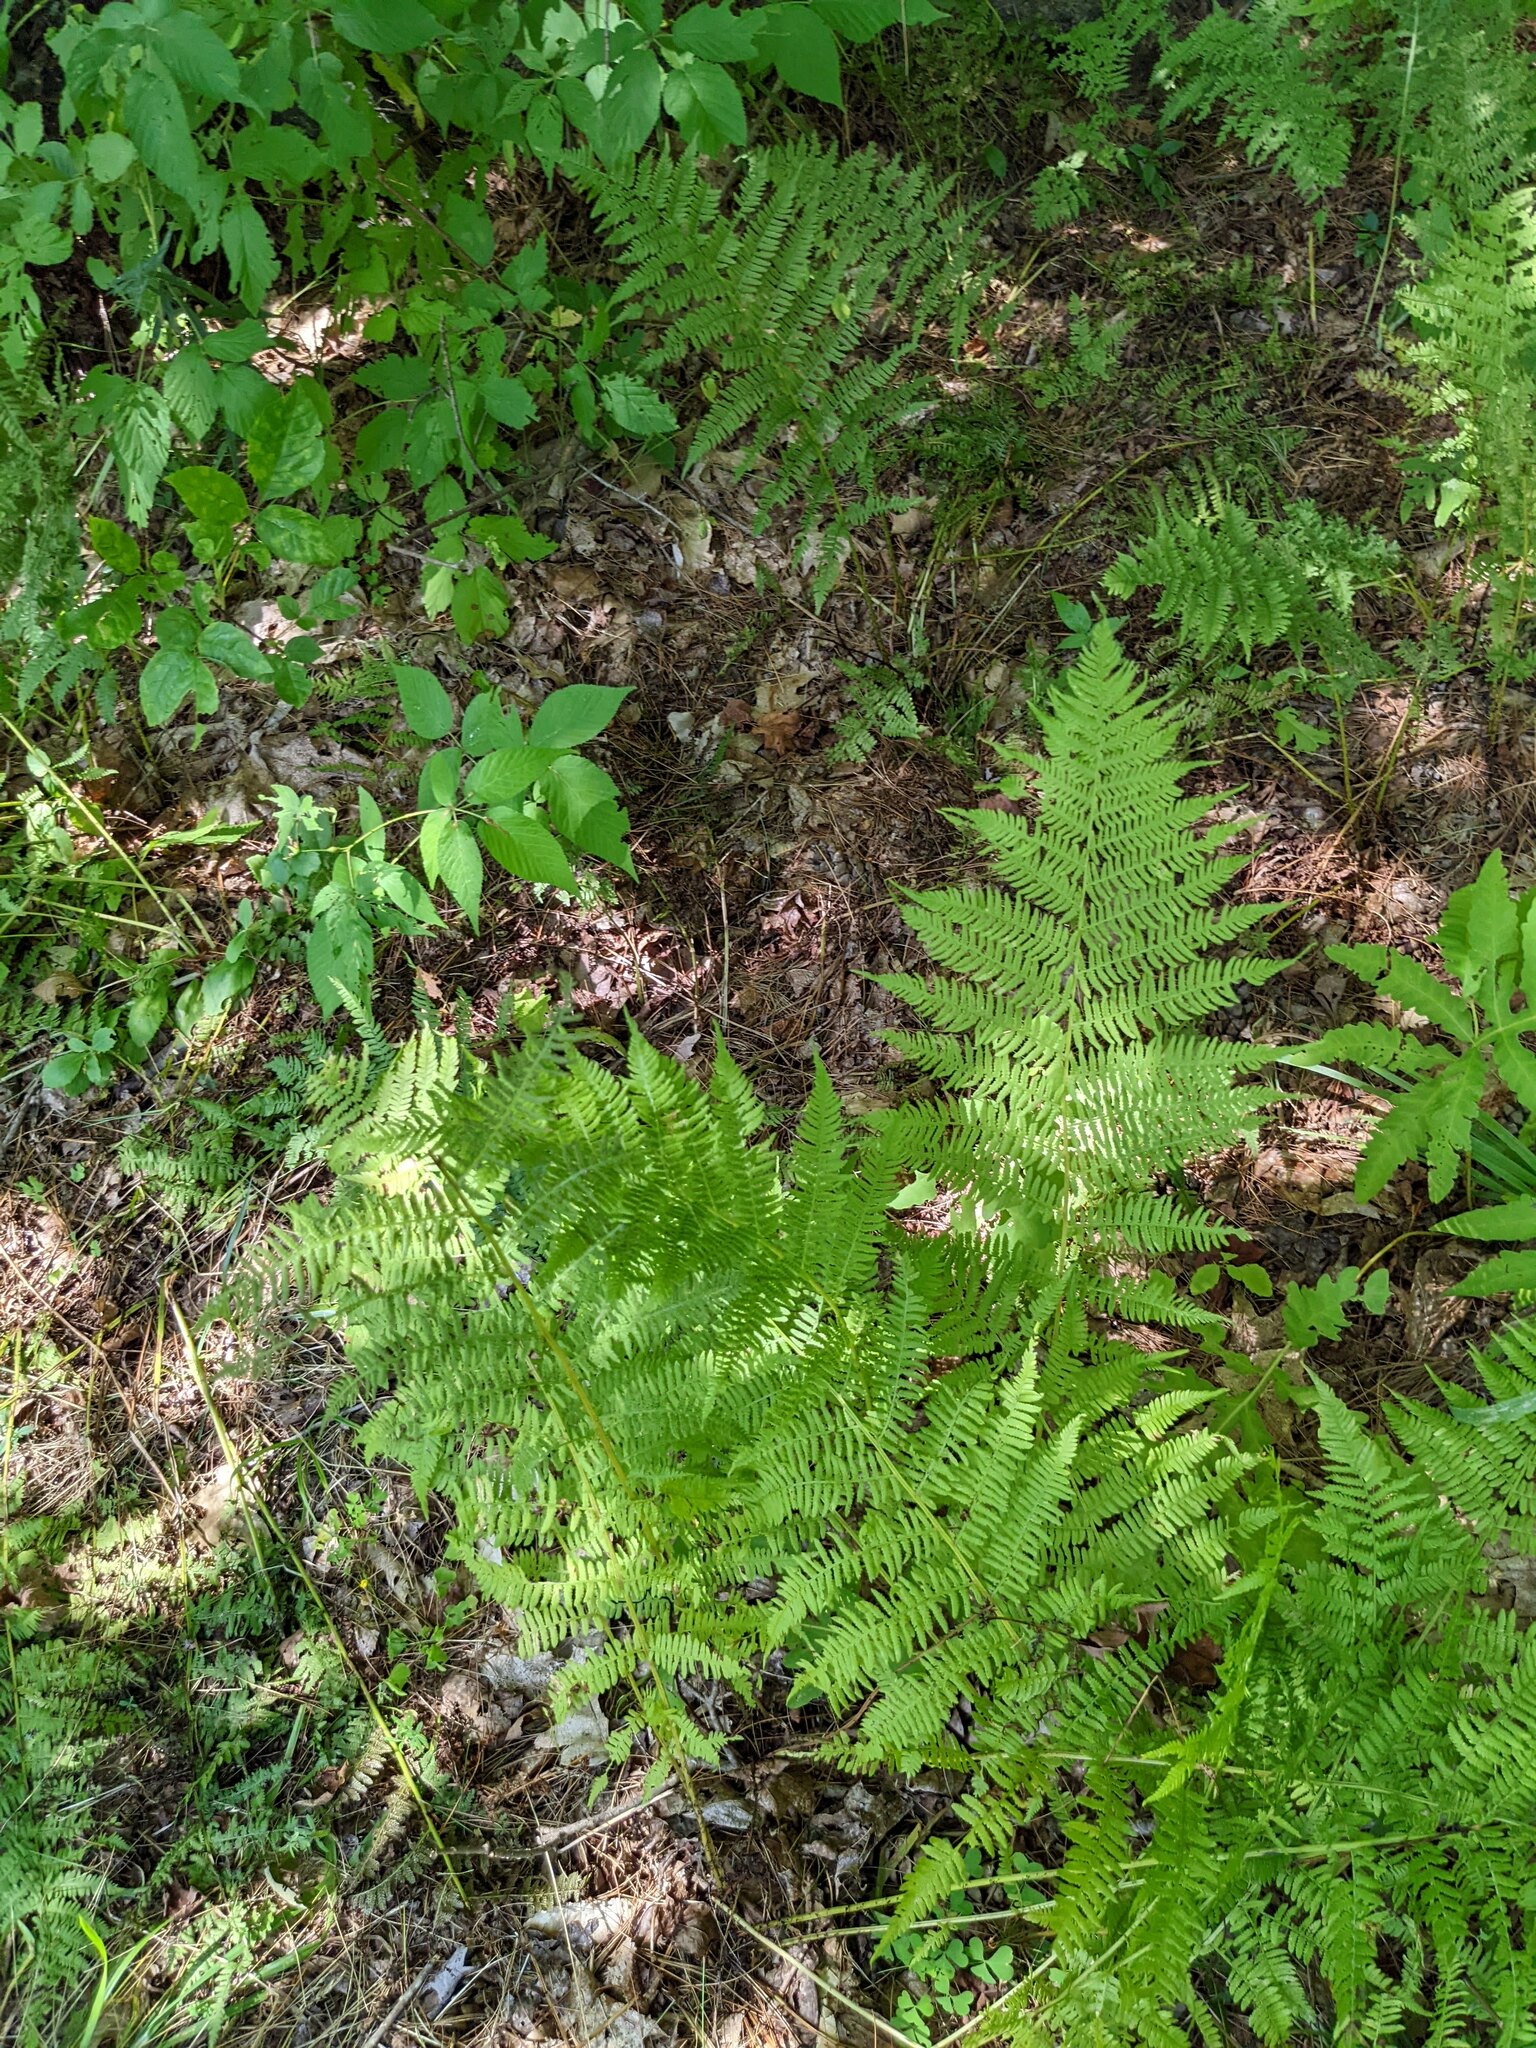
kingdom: Plantae
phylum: Tracheophyta
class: Polypodiopsida
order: Polypodiales
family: Athyriaceae
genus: Athyrium
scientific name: Athyrium angustum
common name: Northern lady fern
